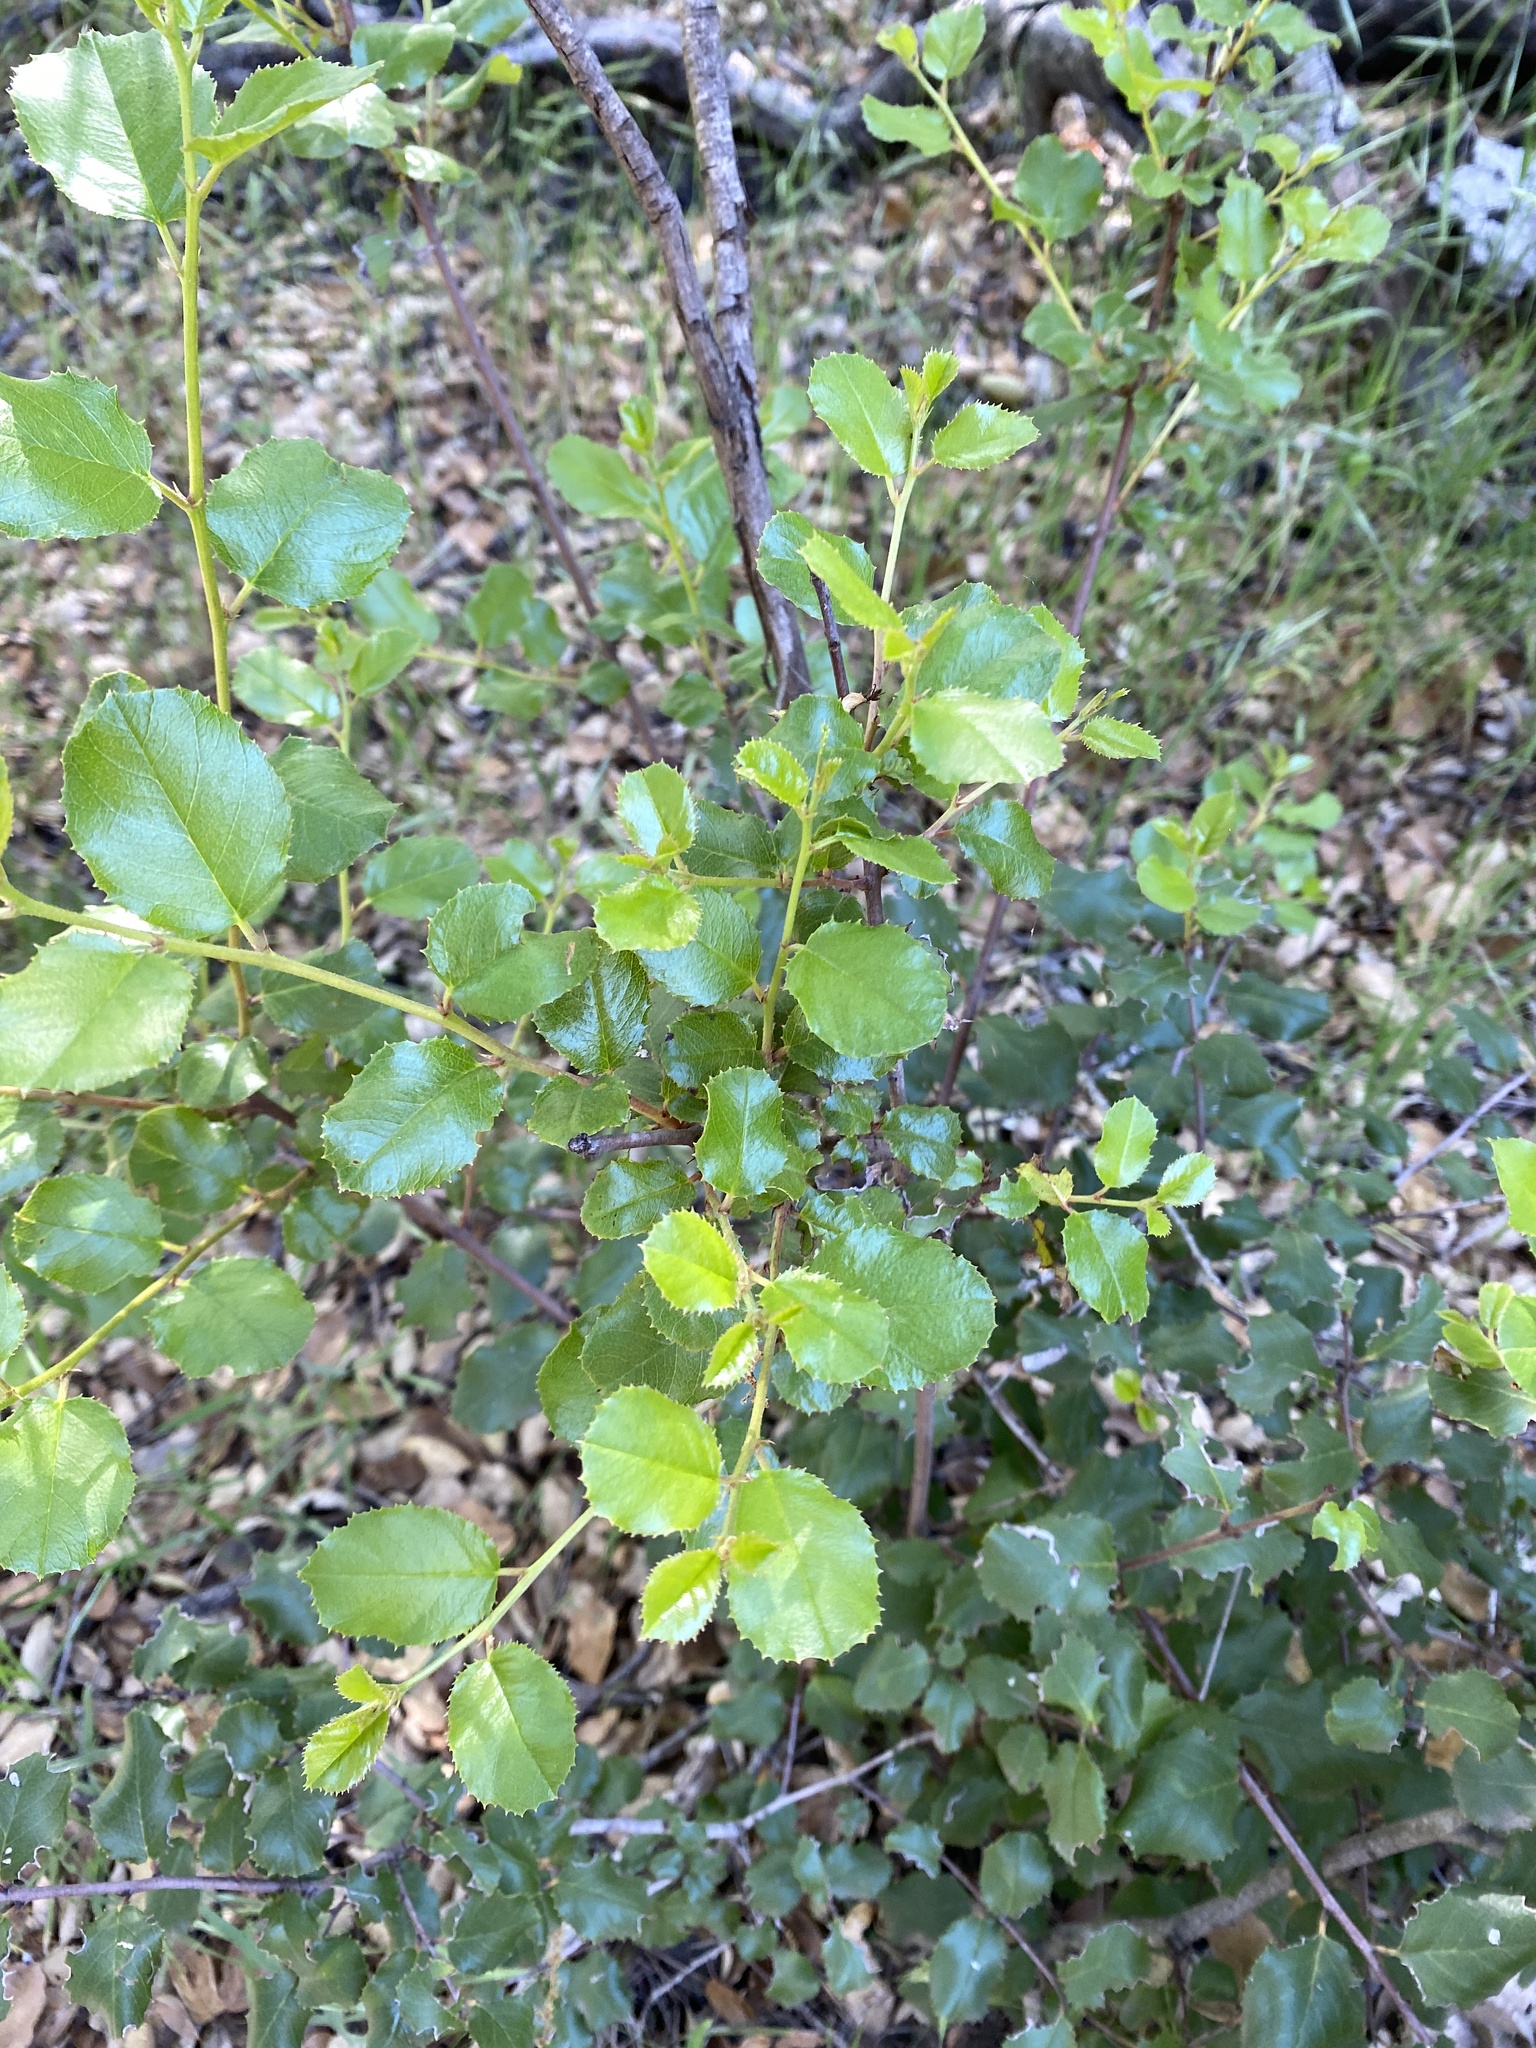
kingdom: Plantae
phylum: Tracheophyta
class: Magnoliopsida
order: Rosales
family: Rhamnaceae
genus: Endotropis
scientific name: Endotropis crocea
